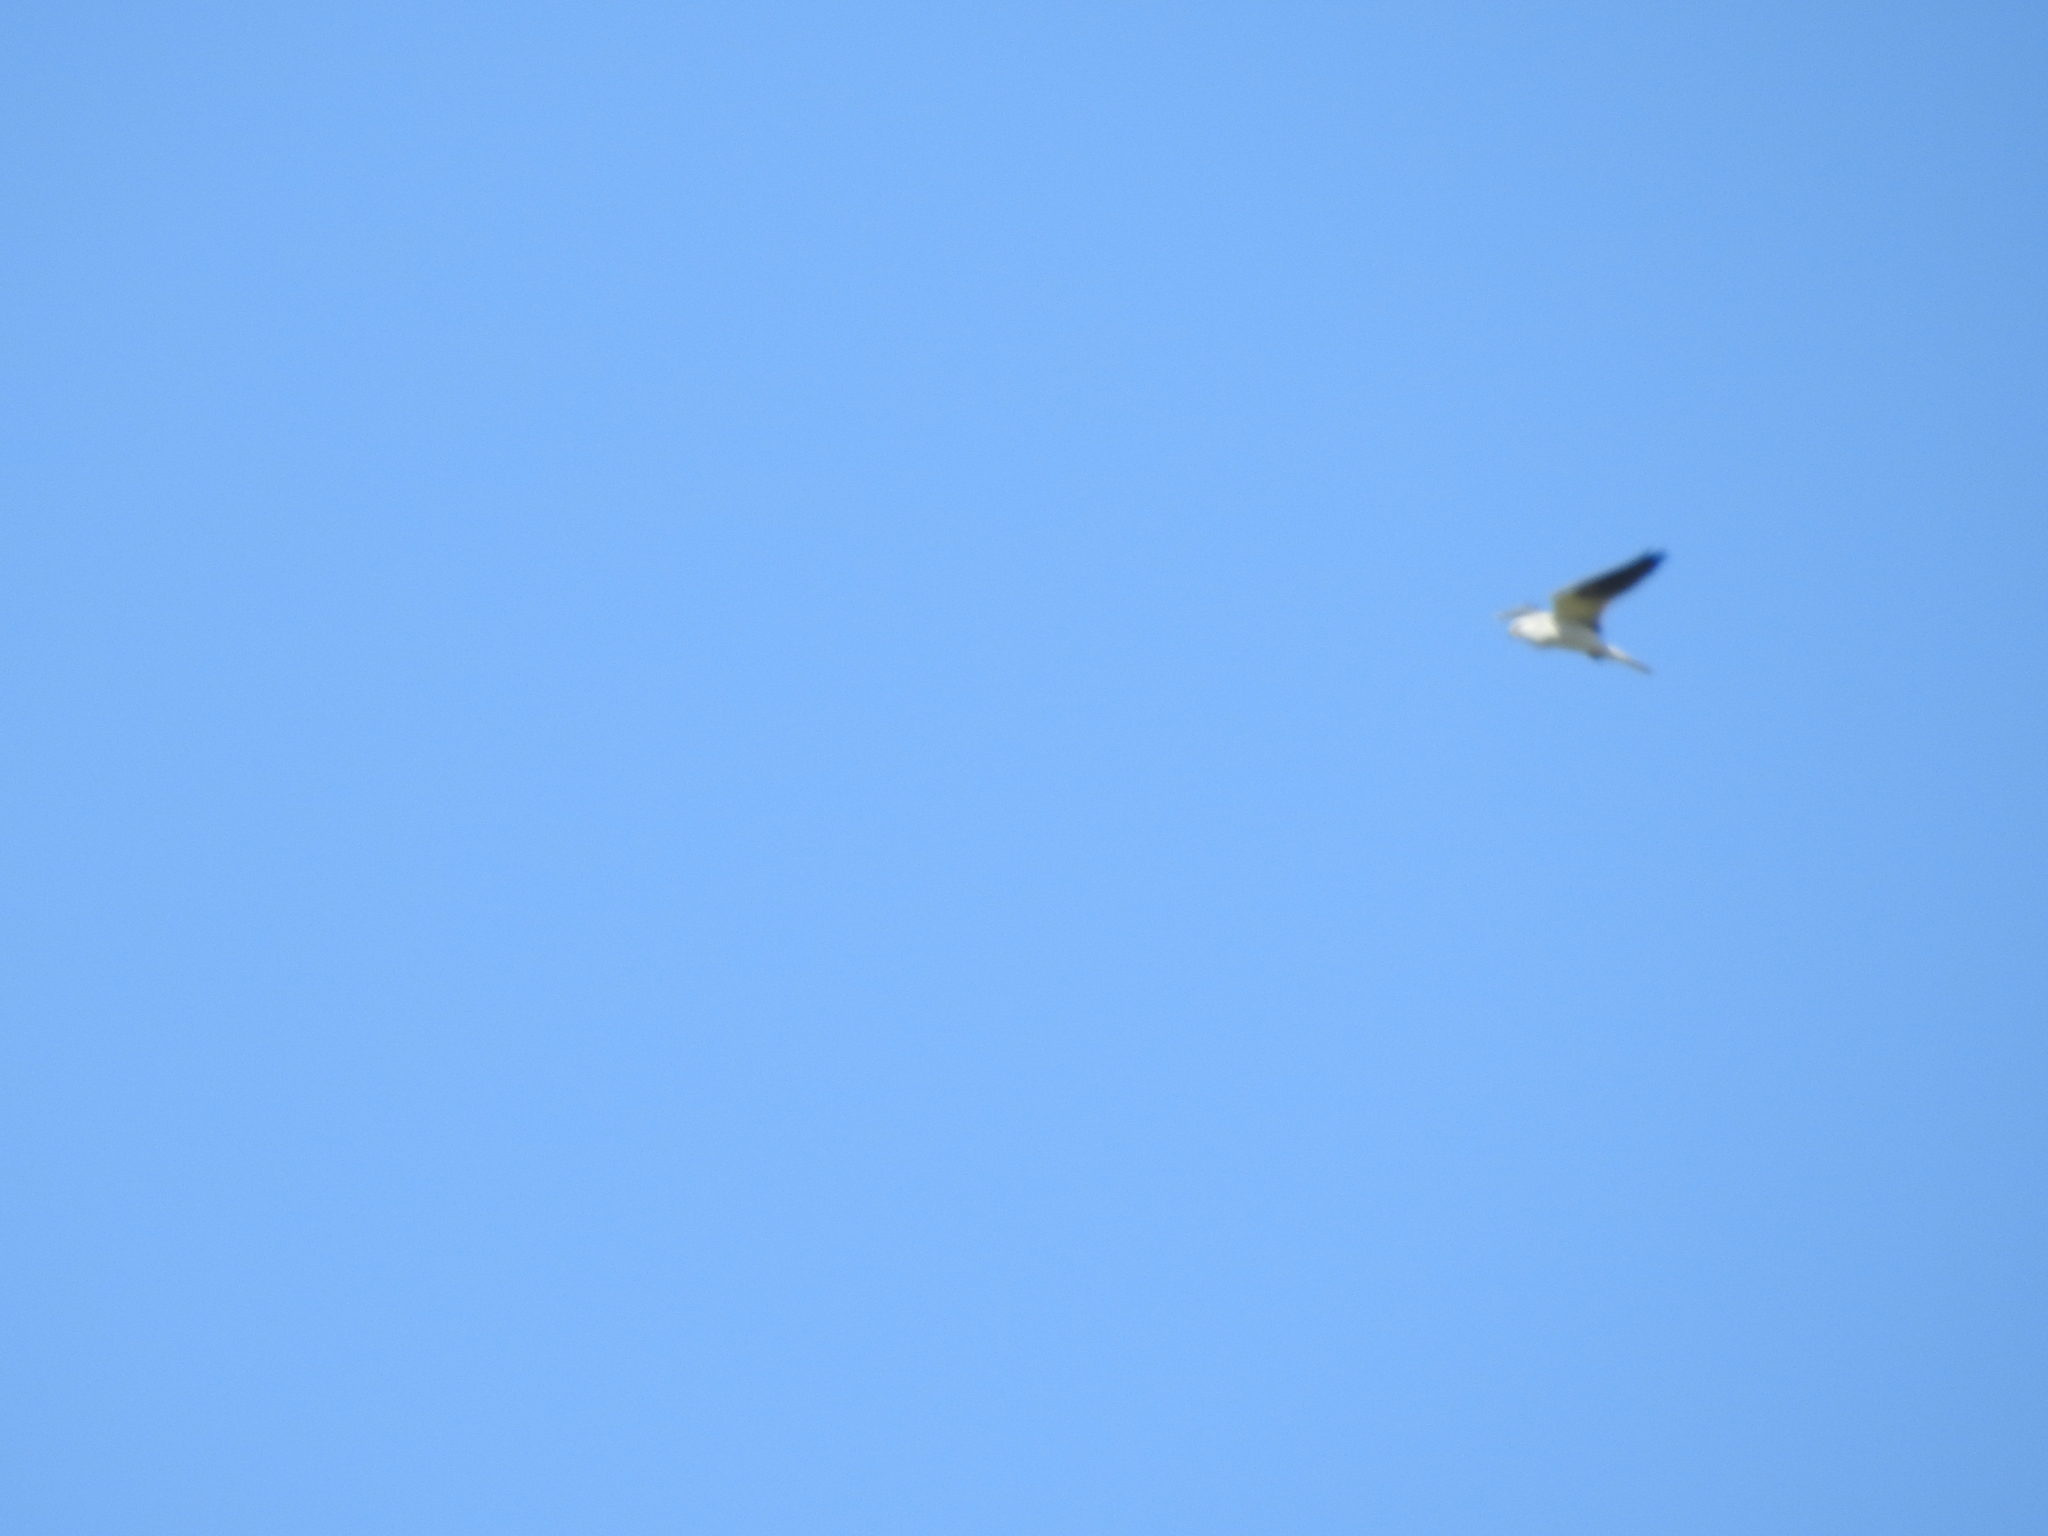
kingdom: Animalia
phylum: Chordata
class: Aves
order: Accipitriformes
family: Accipitridae
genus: Elanus
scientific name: Elanus leucurus
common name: White-tailed kite
